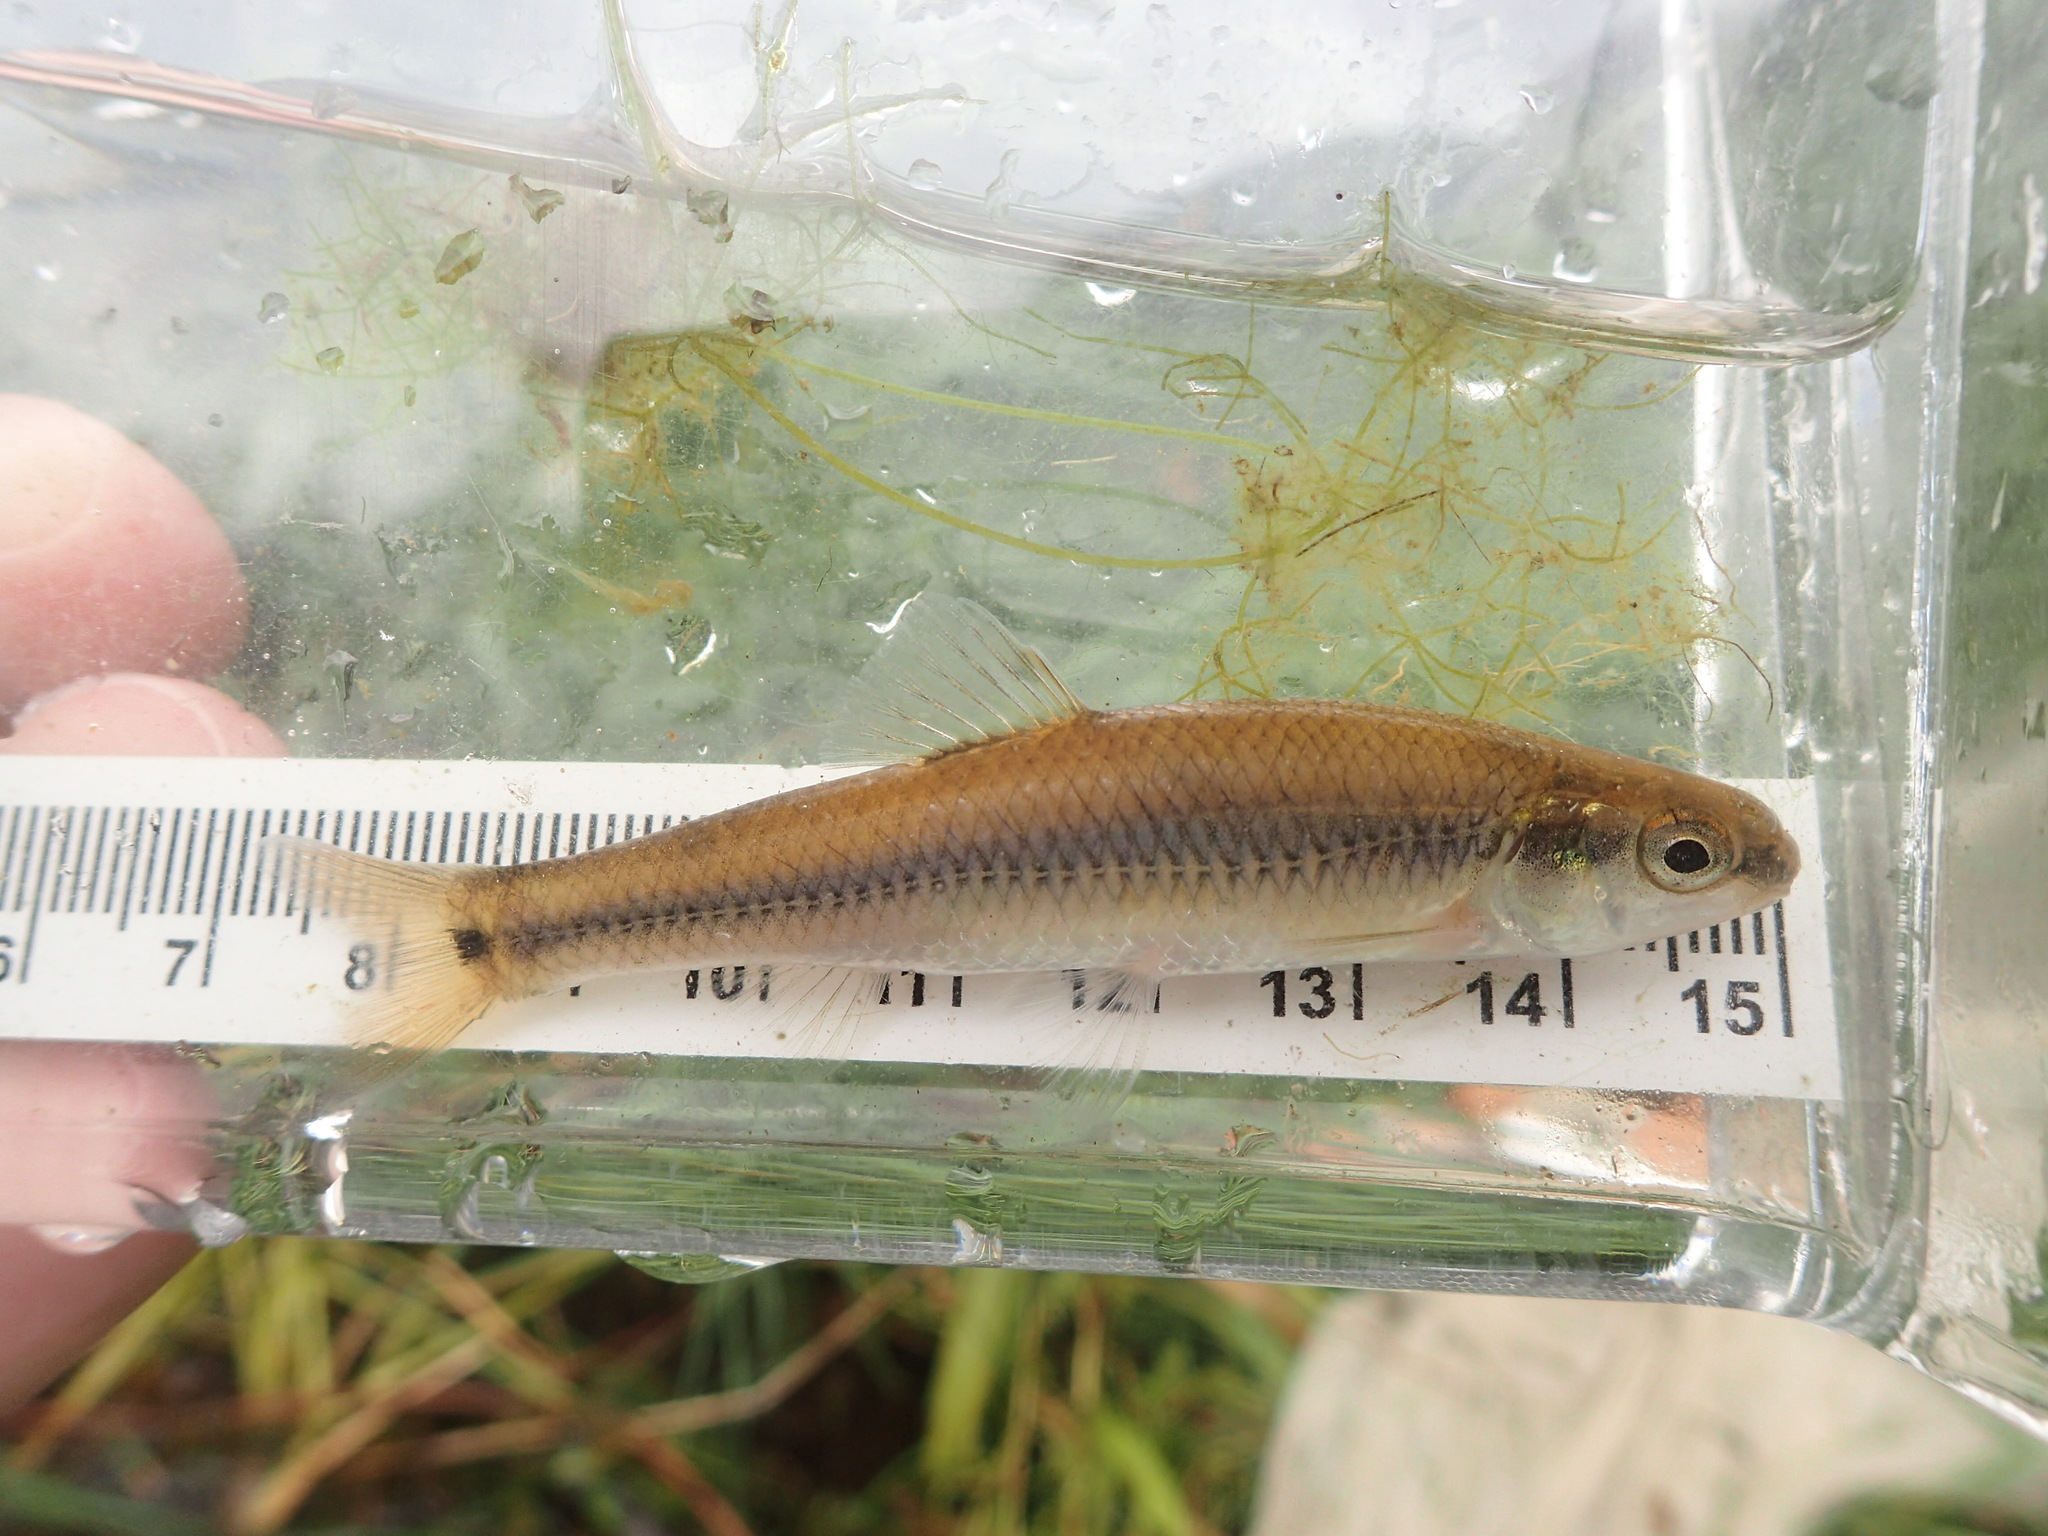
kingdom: Animalia
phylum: Chordata
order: Cypriniformes
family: Cyprinidae
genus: Pimephales
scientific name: Pimephales notatus
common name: Bluntnose minnow
